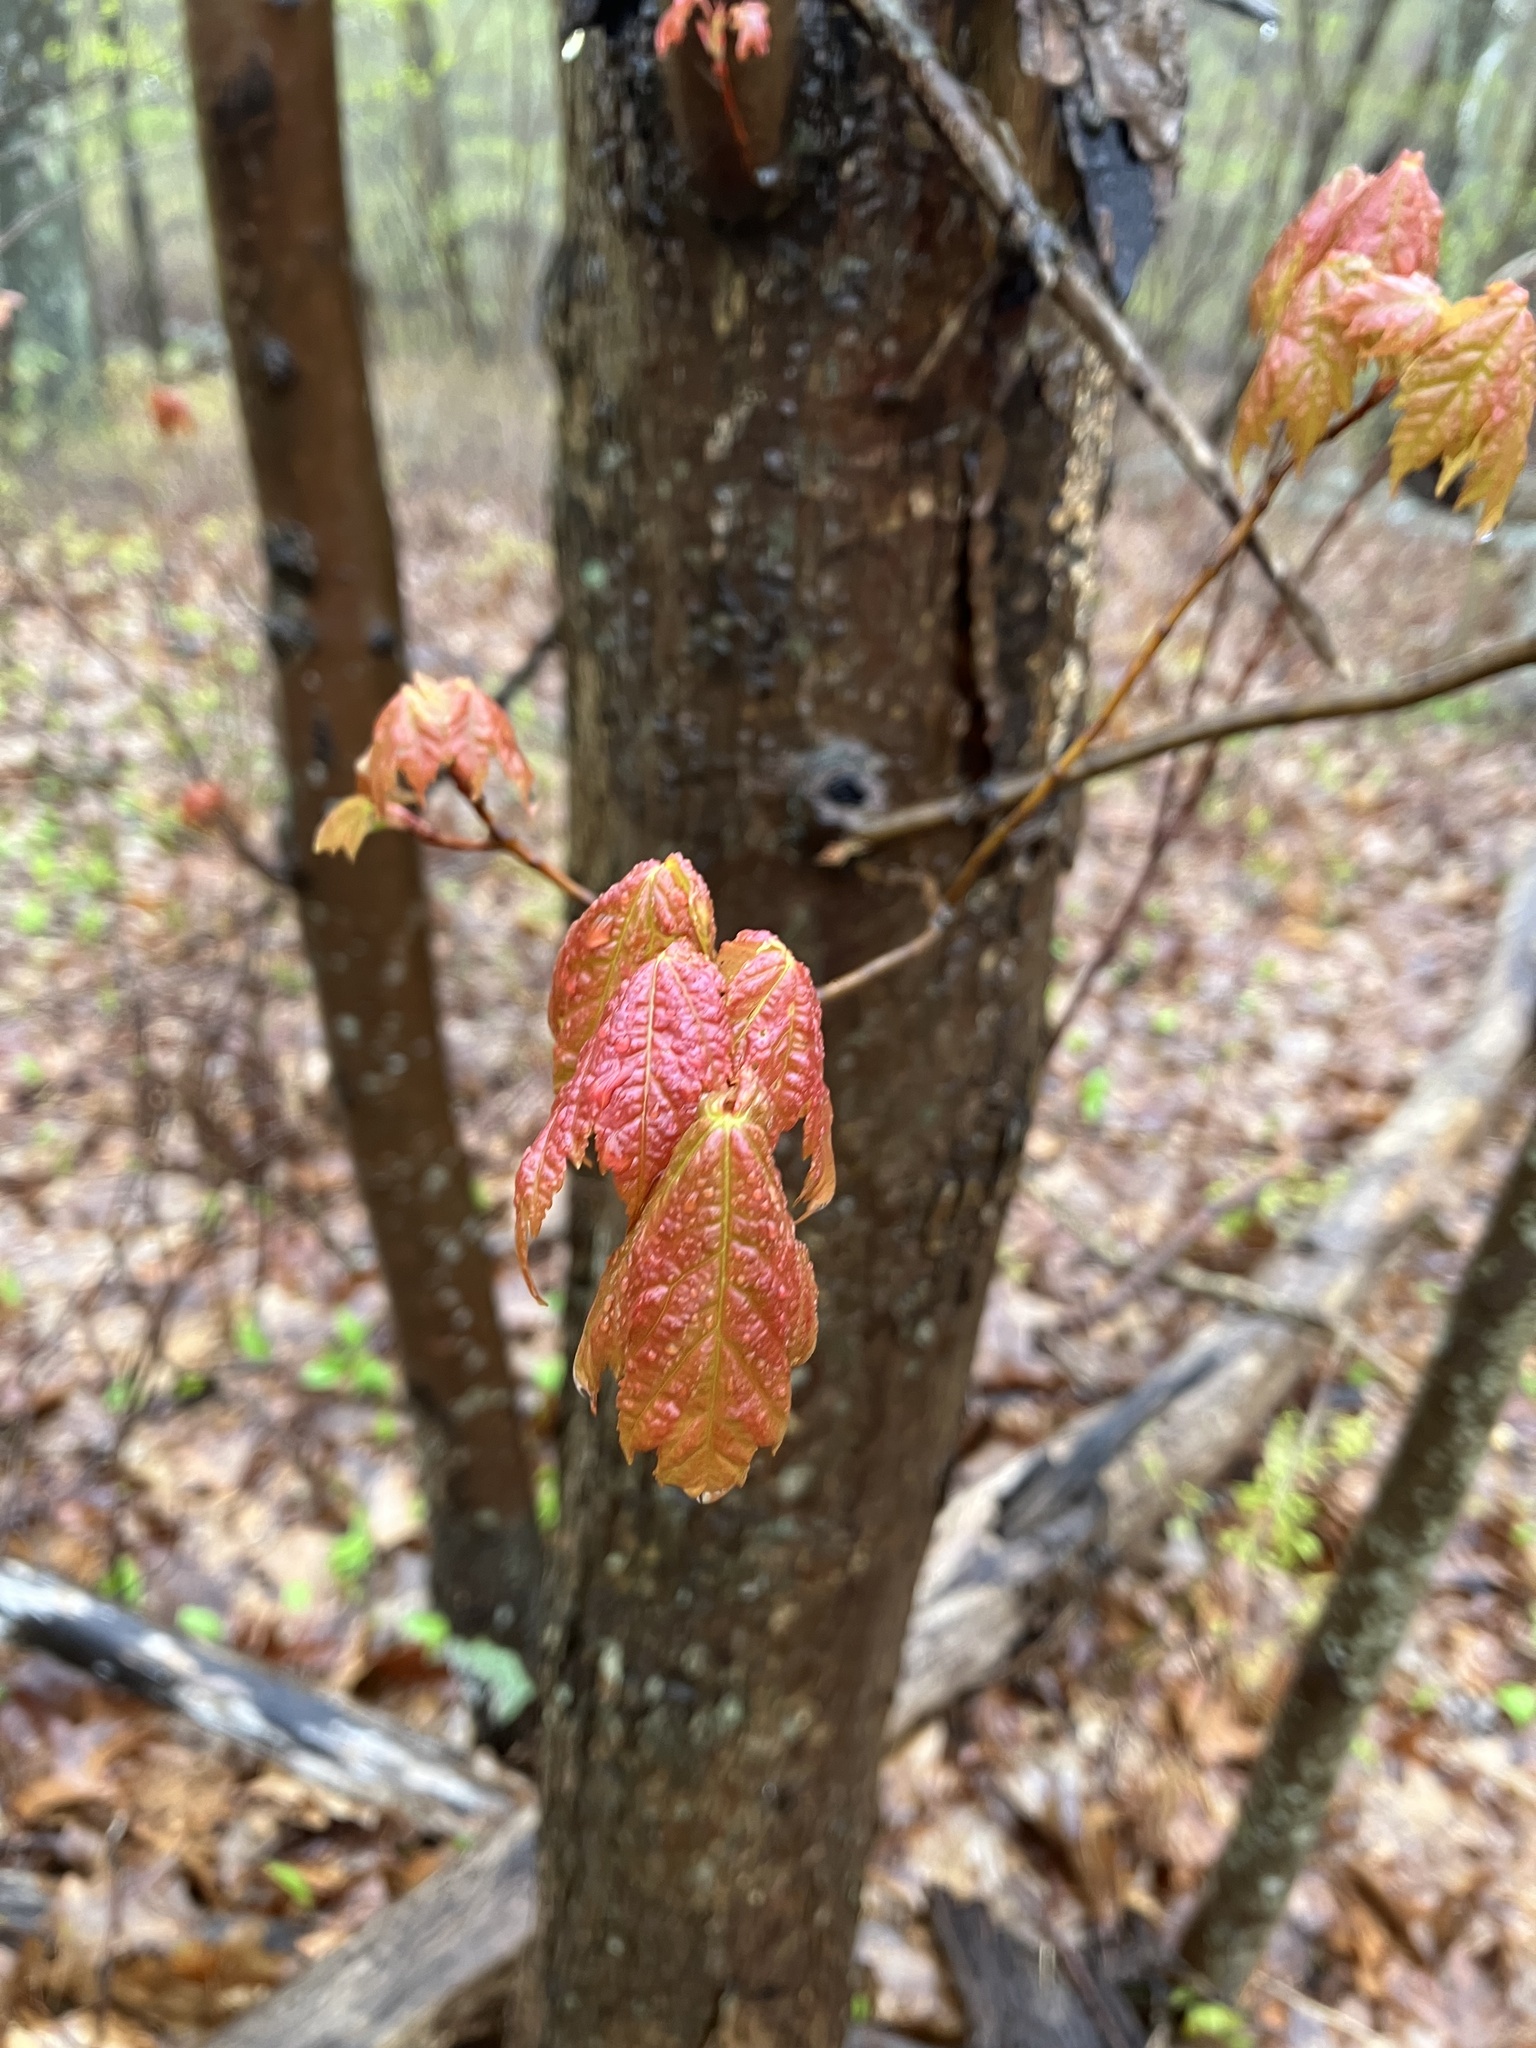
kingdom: Plantae
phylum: Tracheophyta
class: Magnoliopsida
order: Sapindales
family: Sapindaceae
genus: Acer
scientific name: Acer rubrum
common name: Red maple
